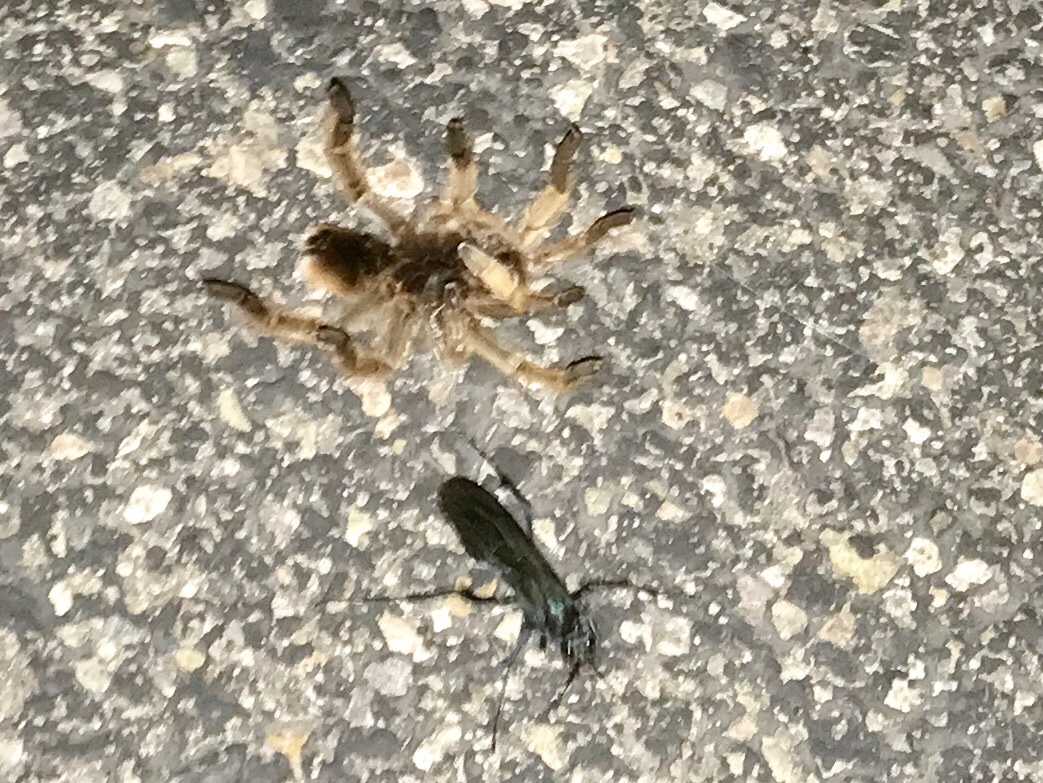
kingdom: Animalia
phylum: Arthropoda
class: Arachnida
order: Araneae
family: Theraphosidae
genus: Aphonopelma
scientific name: Aphonopelma chalcodes
